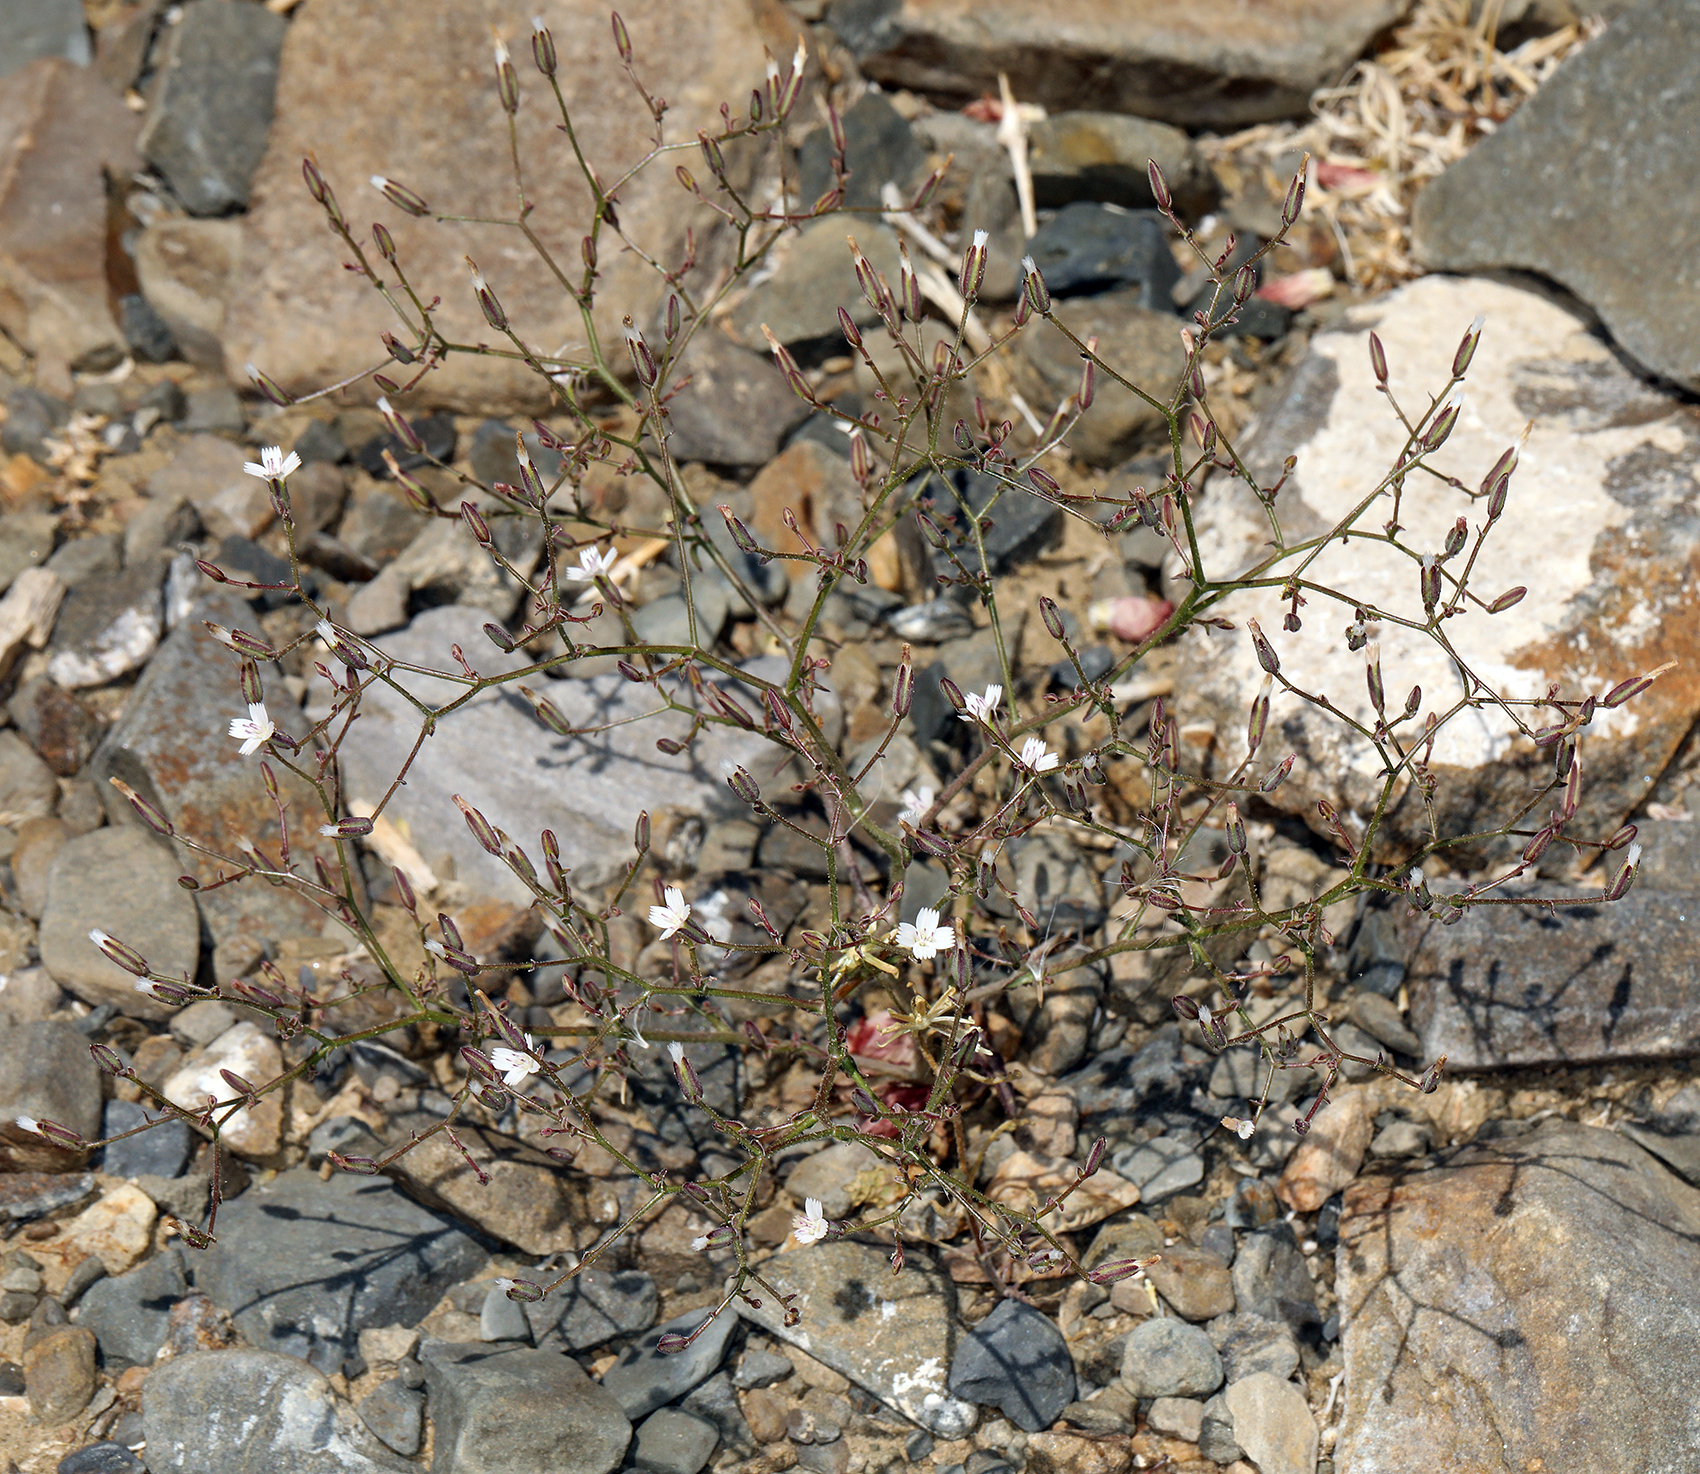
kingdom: Plantae
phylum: Tracheophyta
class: Magnoliopsida
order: Asterales
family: Asteraceae
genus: Lygodesmia
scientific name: Lygodesmia exigua
